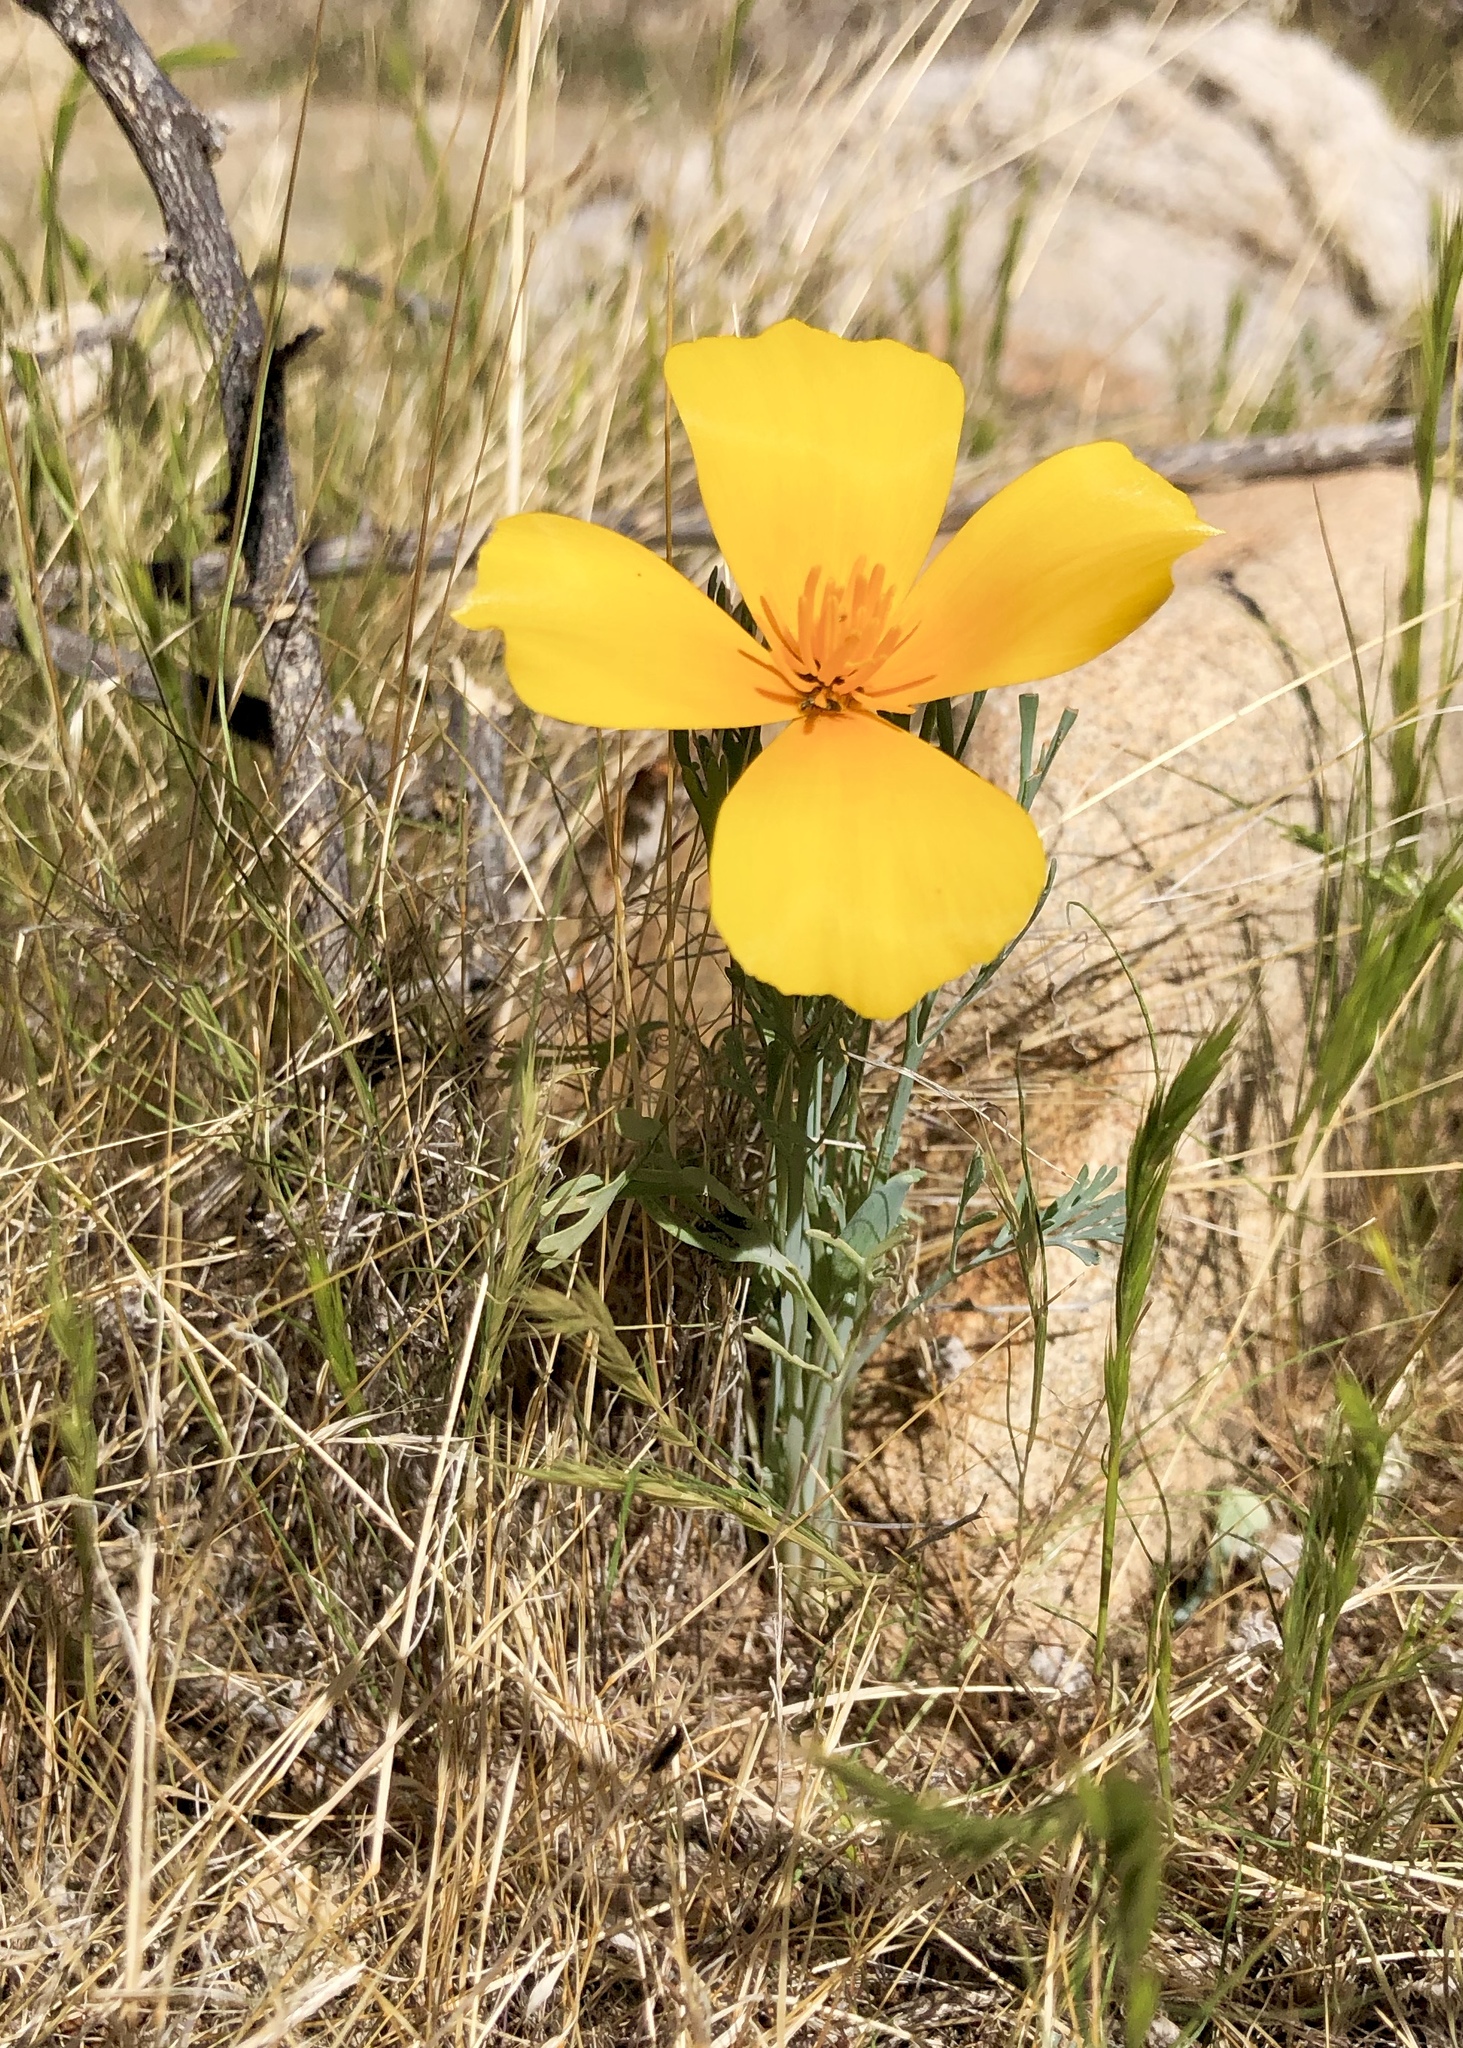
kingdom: Plantae
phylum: Tracheophyta
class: Magnoliopsida
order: Ranunculales
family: Papaveraceae
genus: Eschscholzia
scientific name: Eschscholzia californica
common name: California poppy
